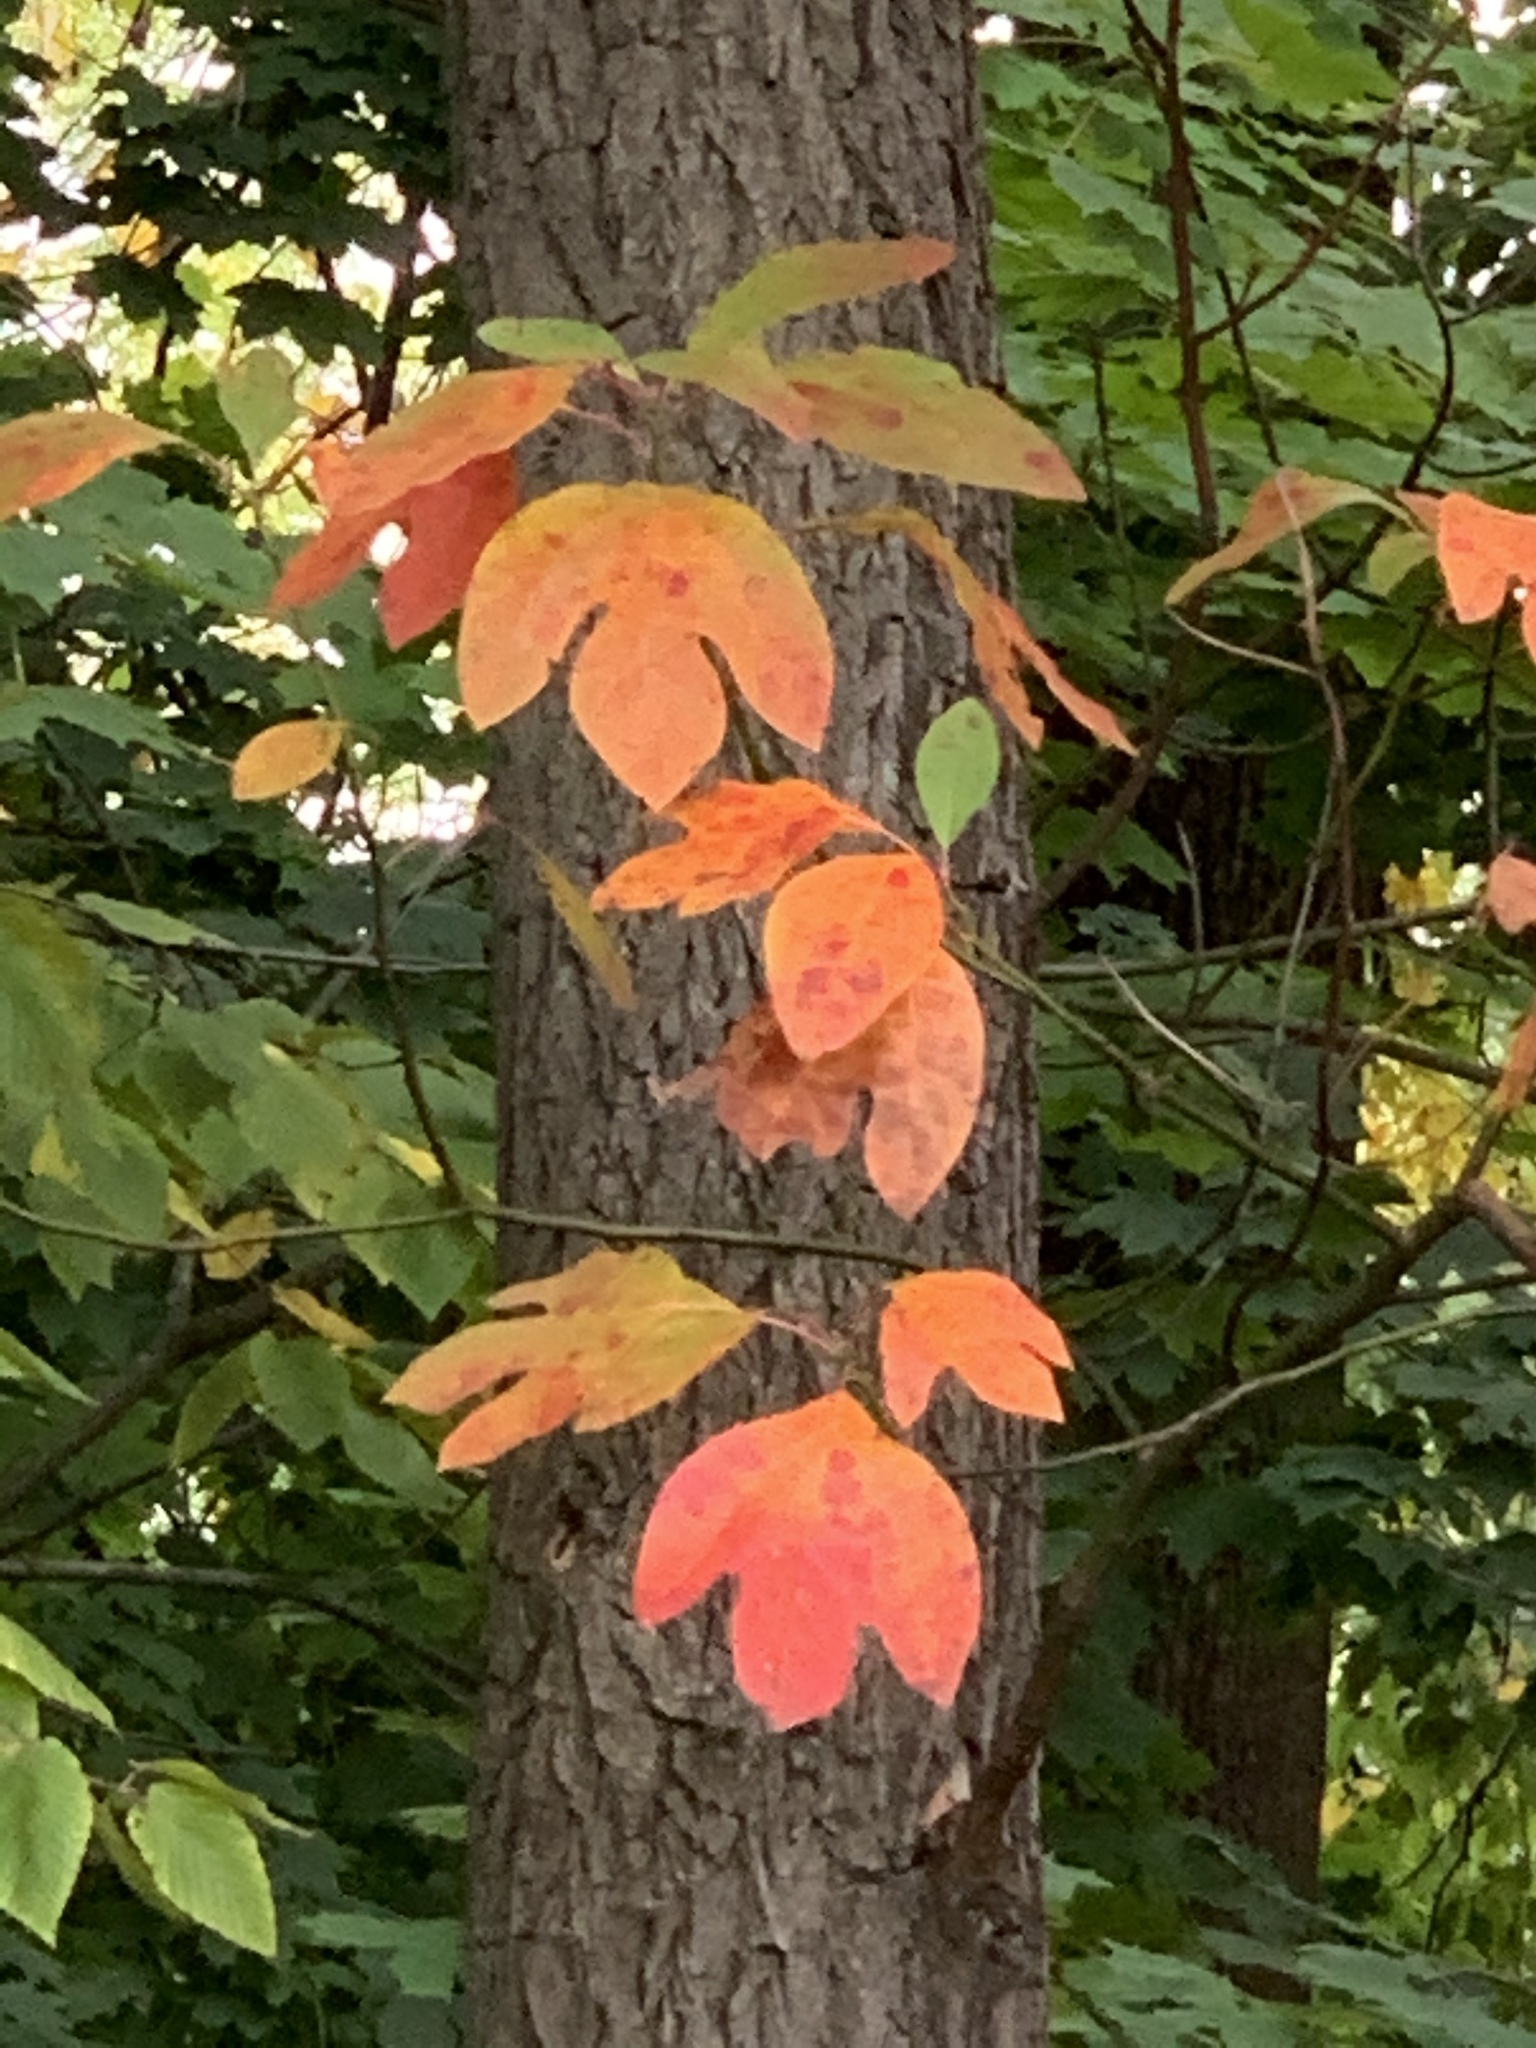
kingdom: Plantae
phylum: Tracheophyta
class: Magnoliopsida
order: Laurales
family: Lauraceae
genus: Sassafras
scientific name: Sassafras albidum
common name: Sassafras
